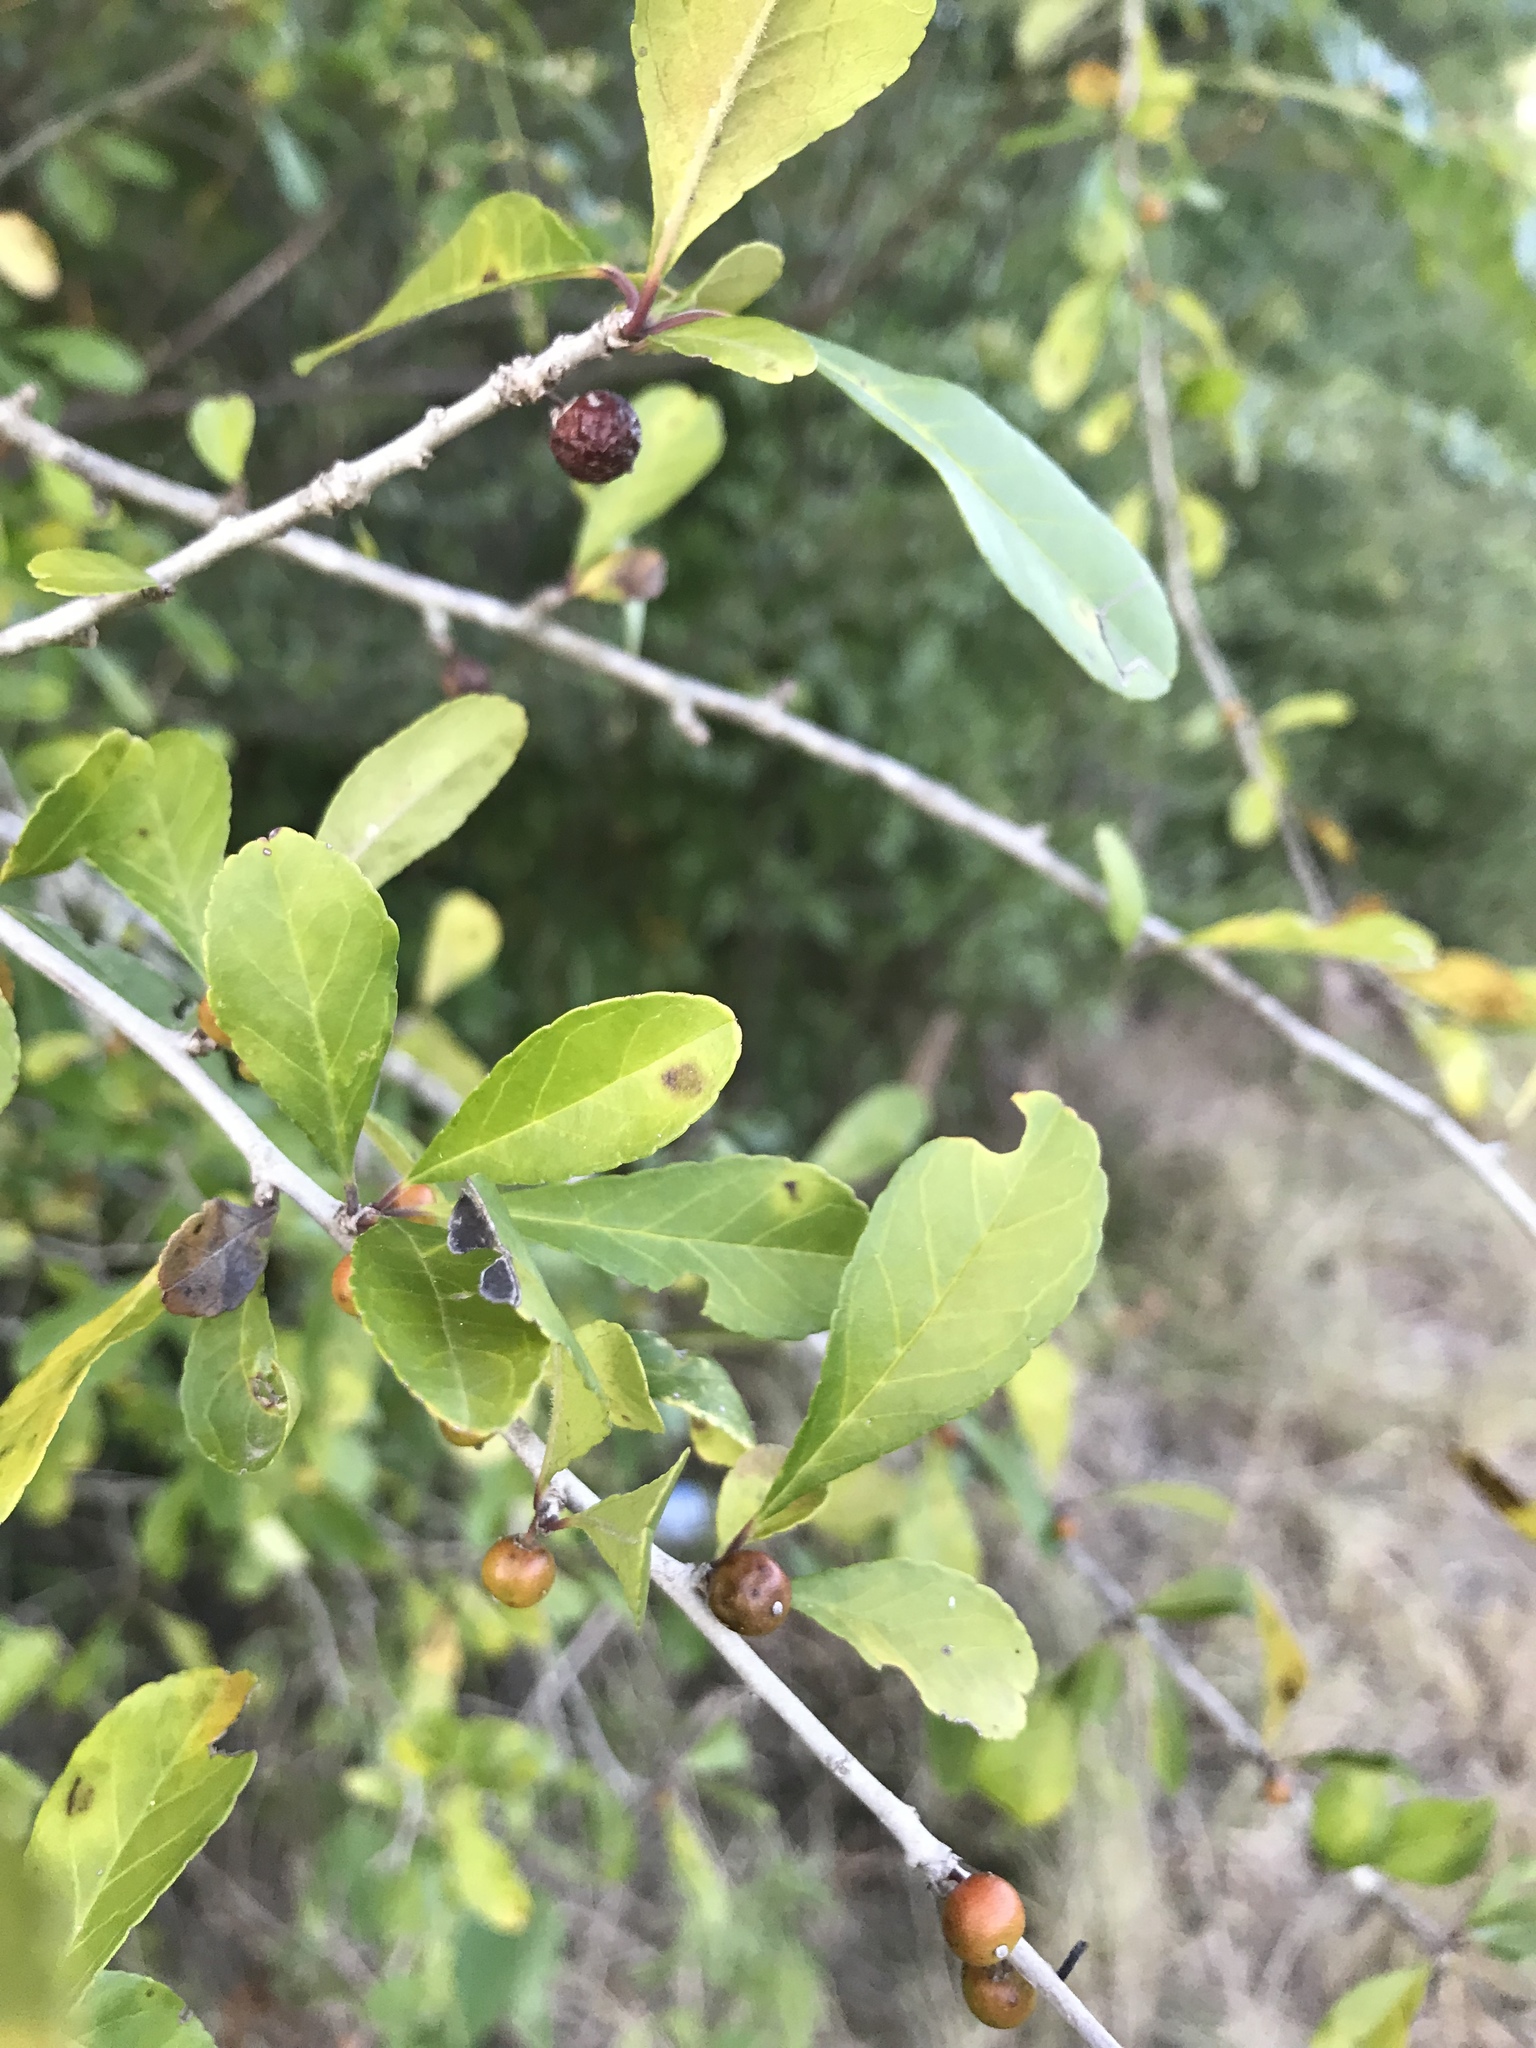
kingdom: Plantae
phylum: Tracheophyta
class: Magnoliopsida
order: Aquifoliales
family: Aquifoliaceae
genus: Ilex
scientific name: Ilex decidua
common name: Possum-haw
